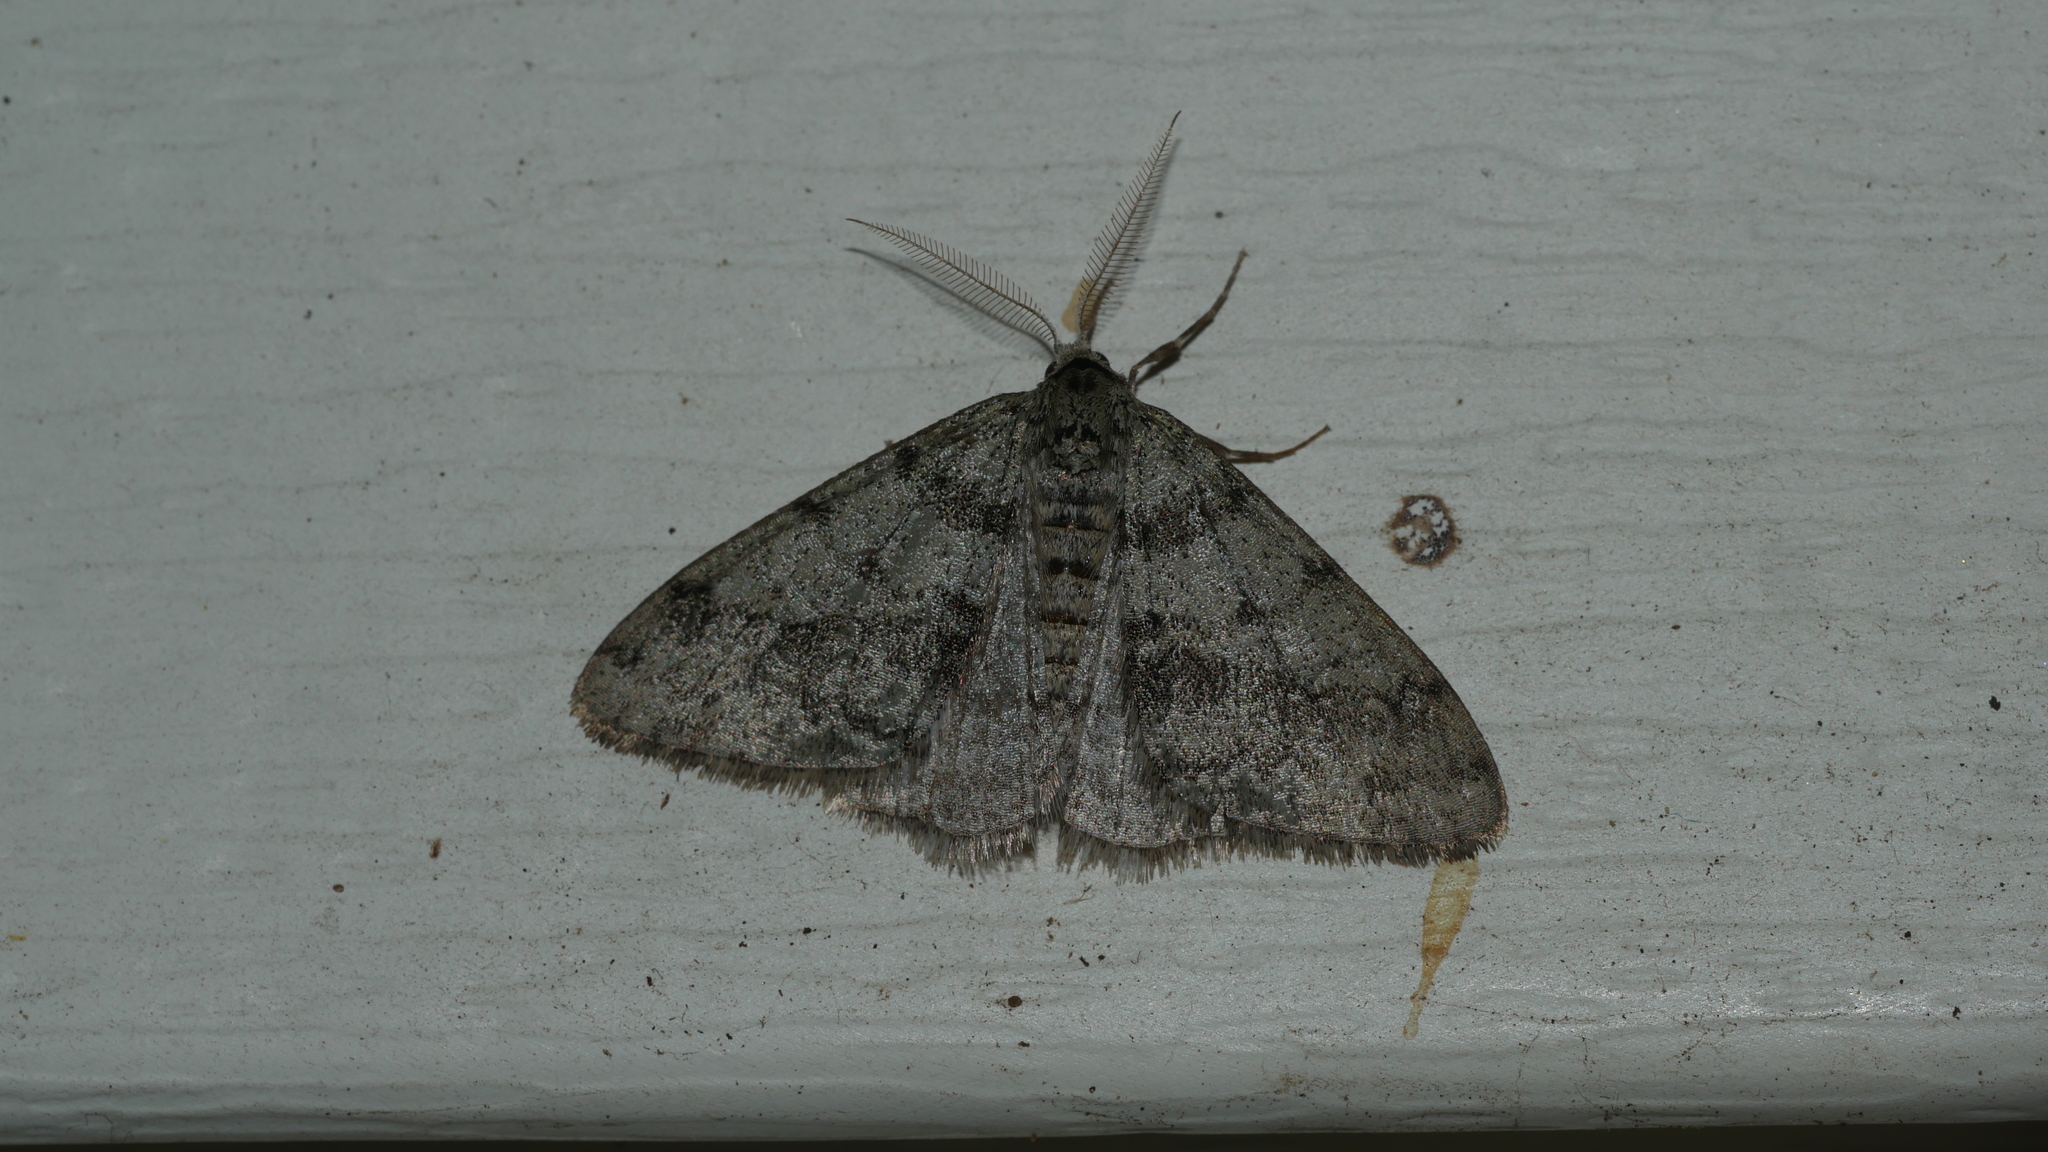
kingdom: Animalia
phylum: Arthropoda
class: Insecta
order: Lepidoptera
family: Geometridae
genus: Phigalia
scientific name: Phigalia strigataria
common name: Small phigalia
